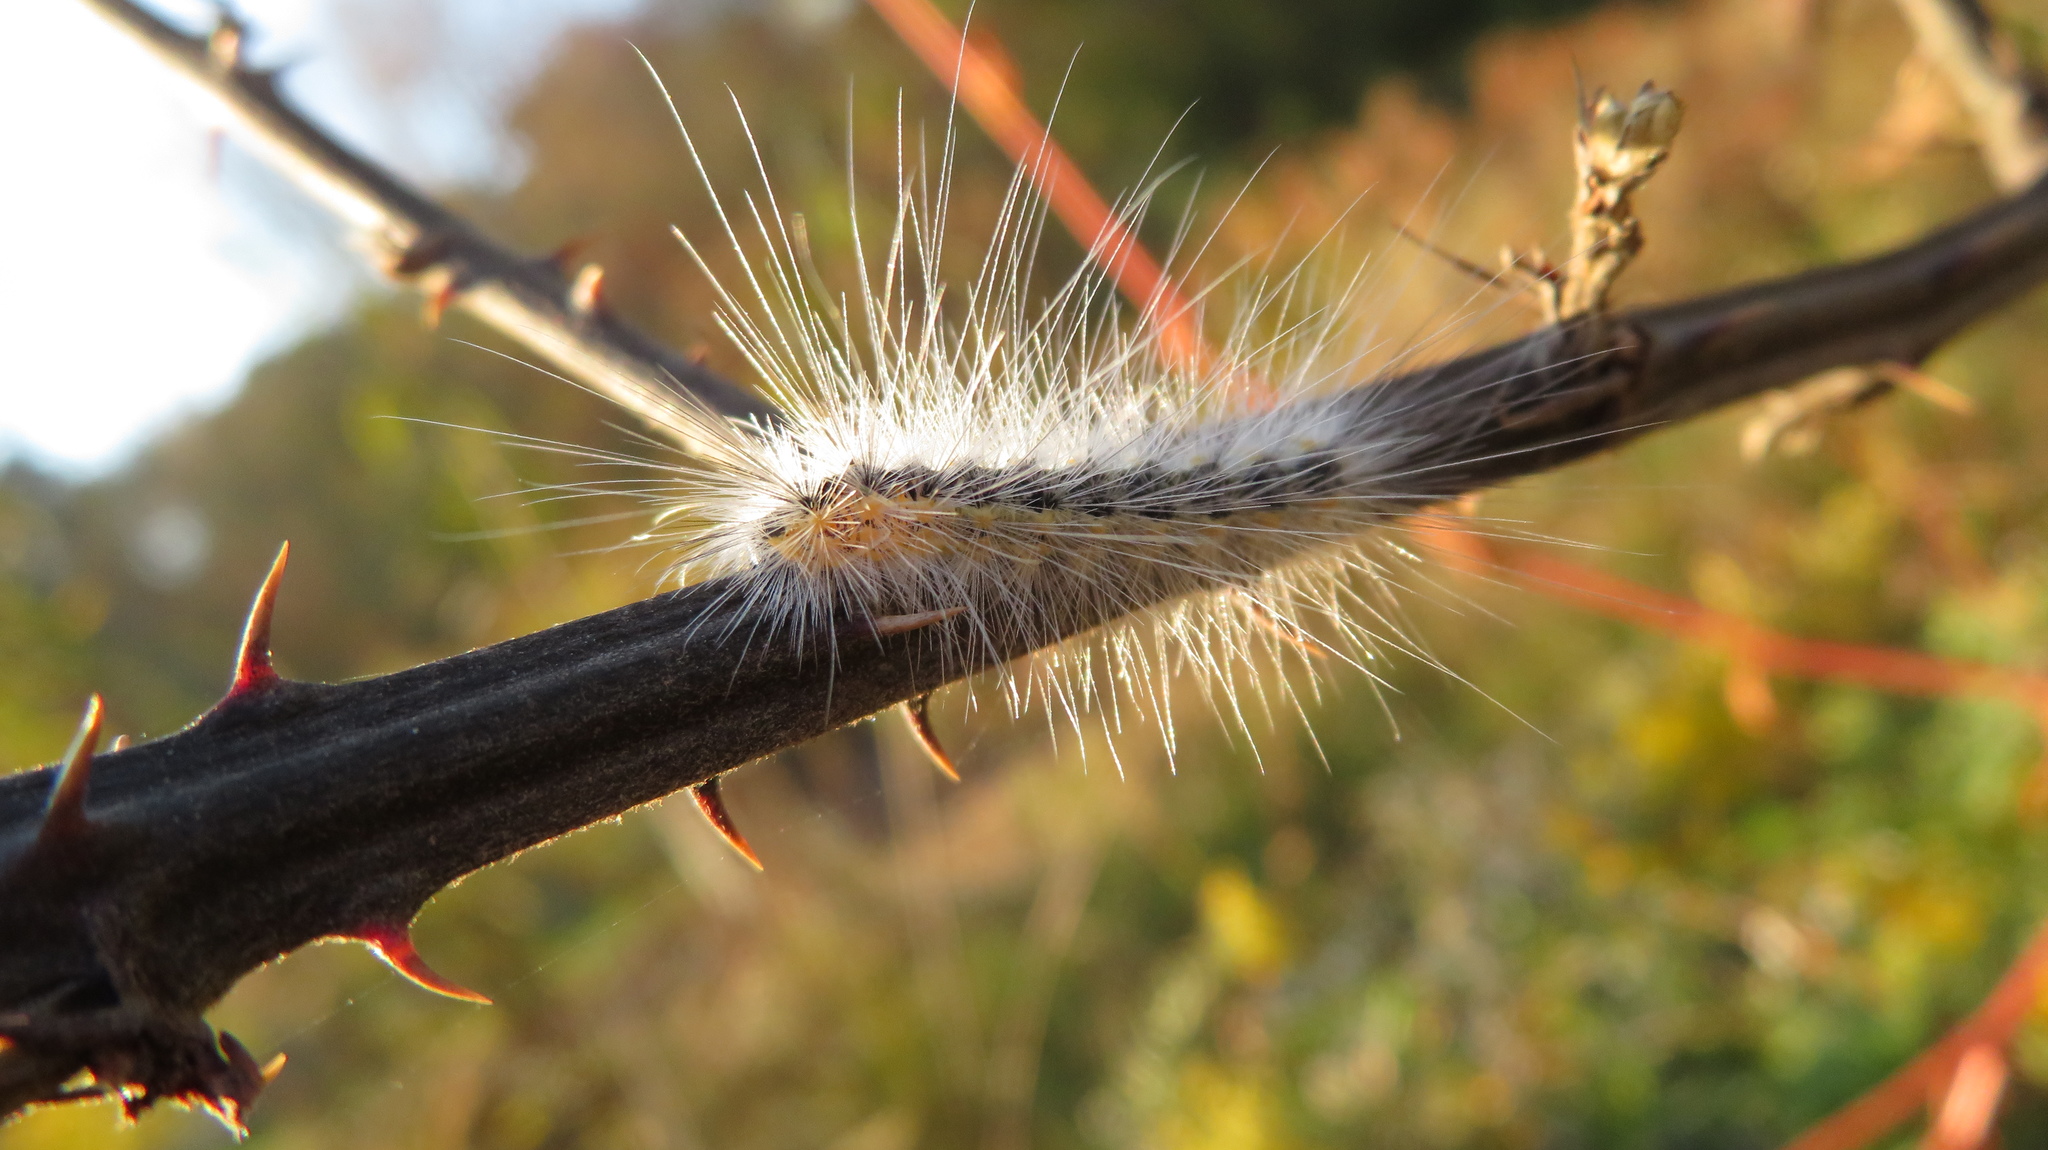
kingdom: Animalia
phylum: Arthropoda
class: Insecta
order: Lepidoptera
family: Erebidae
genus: Hyphantria
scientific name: Hyphantria cunea
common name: American white moth
